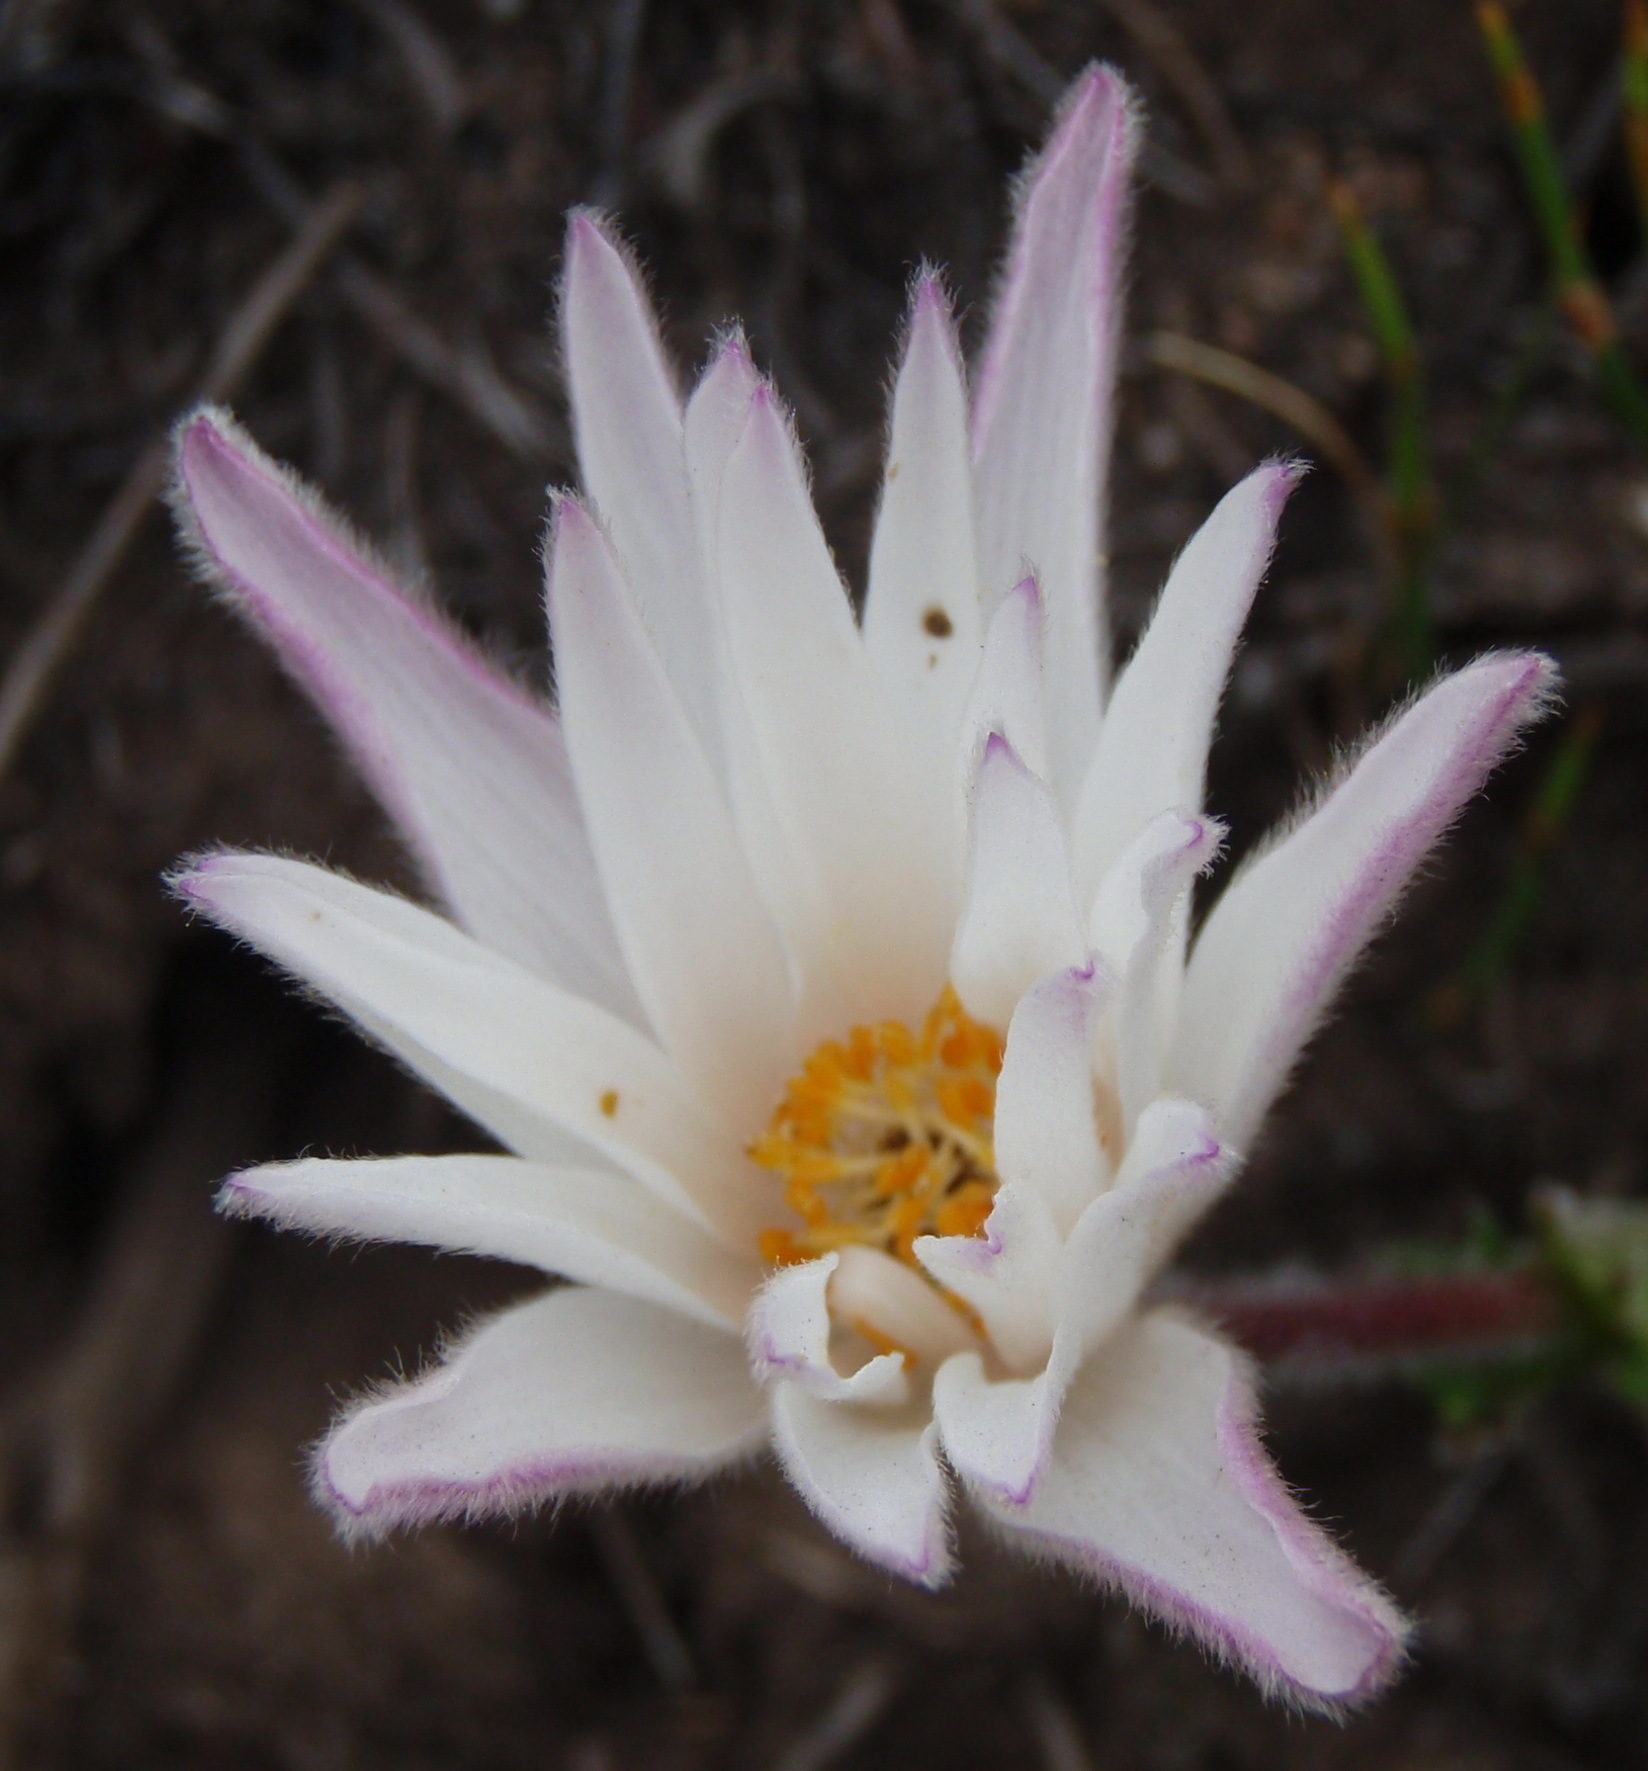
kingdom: Plantae
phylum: Tracheophyta
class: Magnoliopsida
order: Ranunculales
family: Ranunculaceae
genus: Knowltonia
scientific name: Knowltonia tenuifolia
